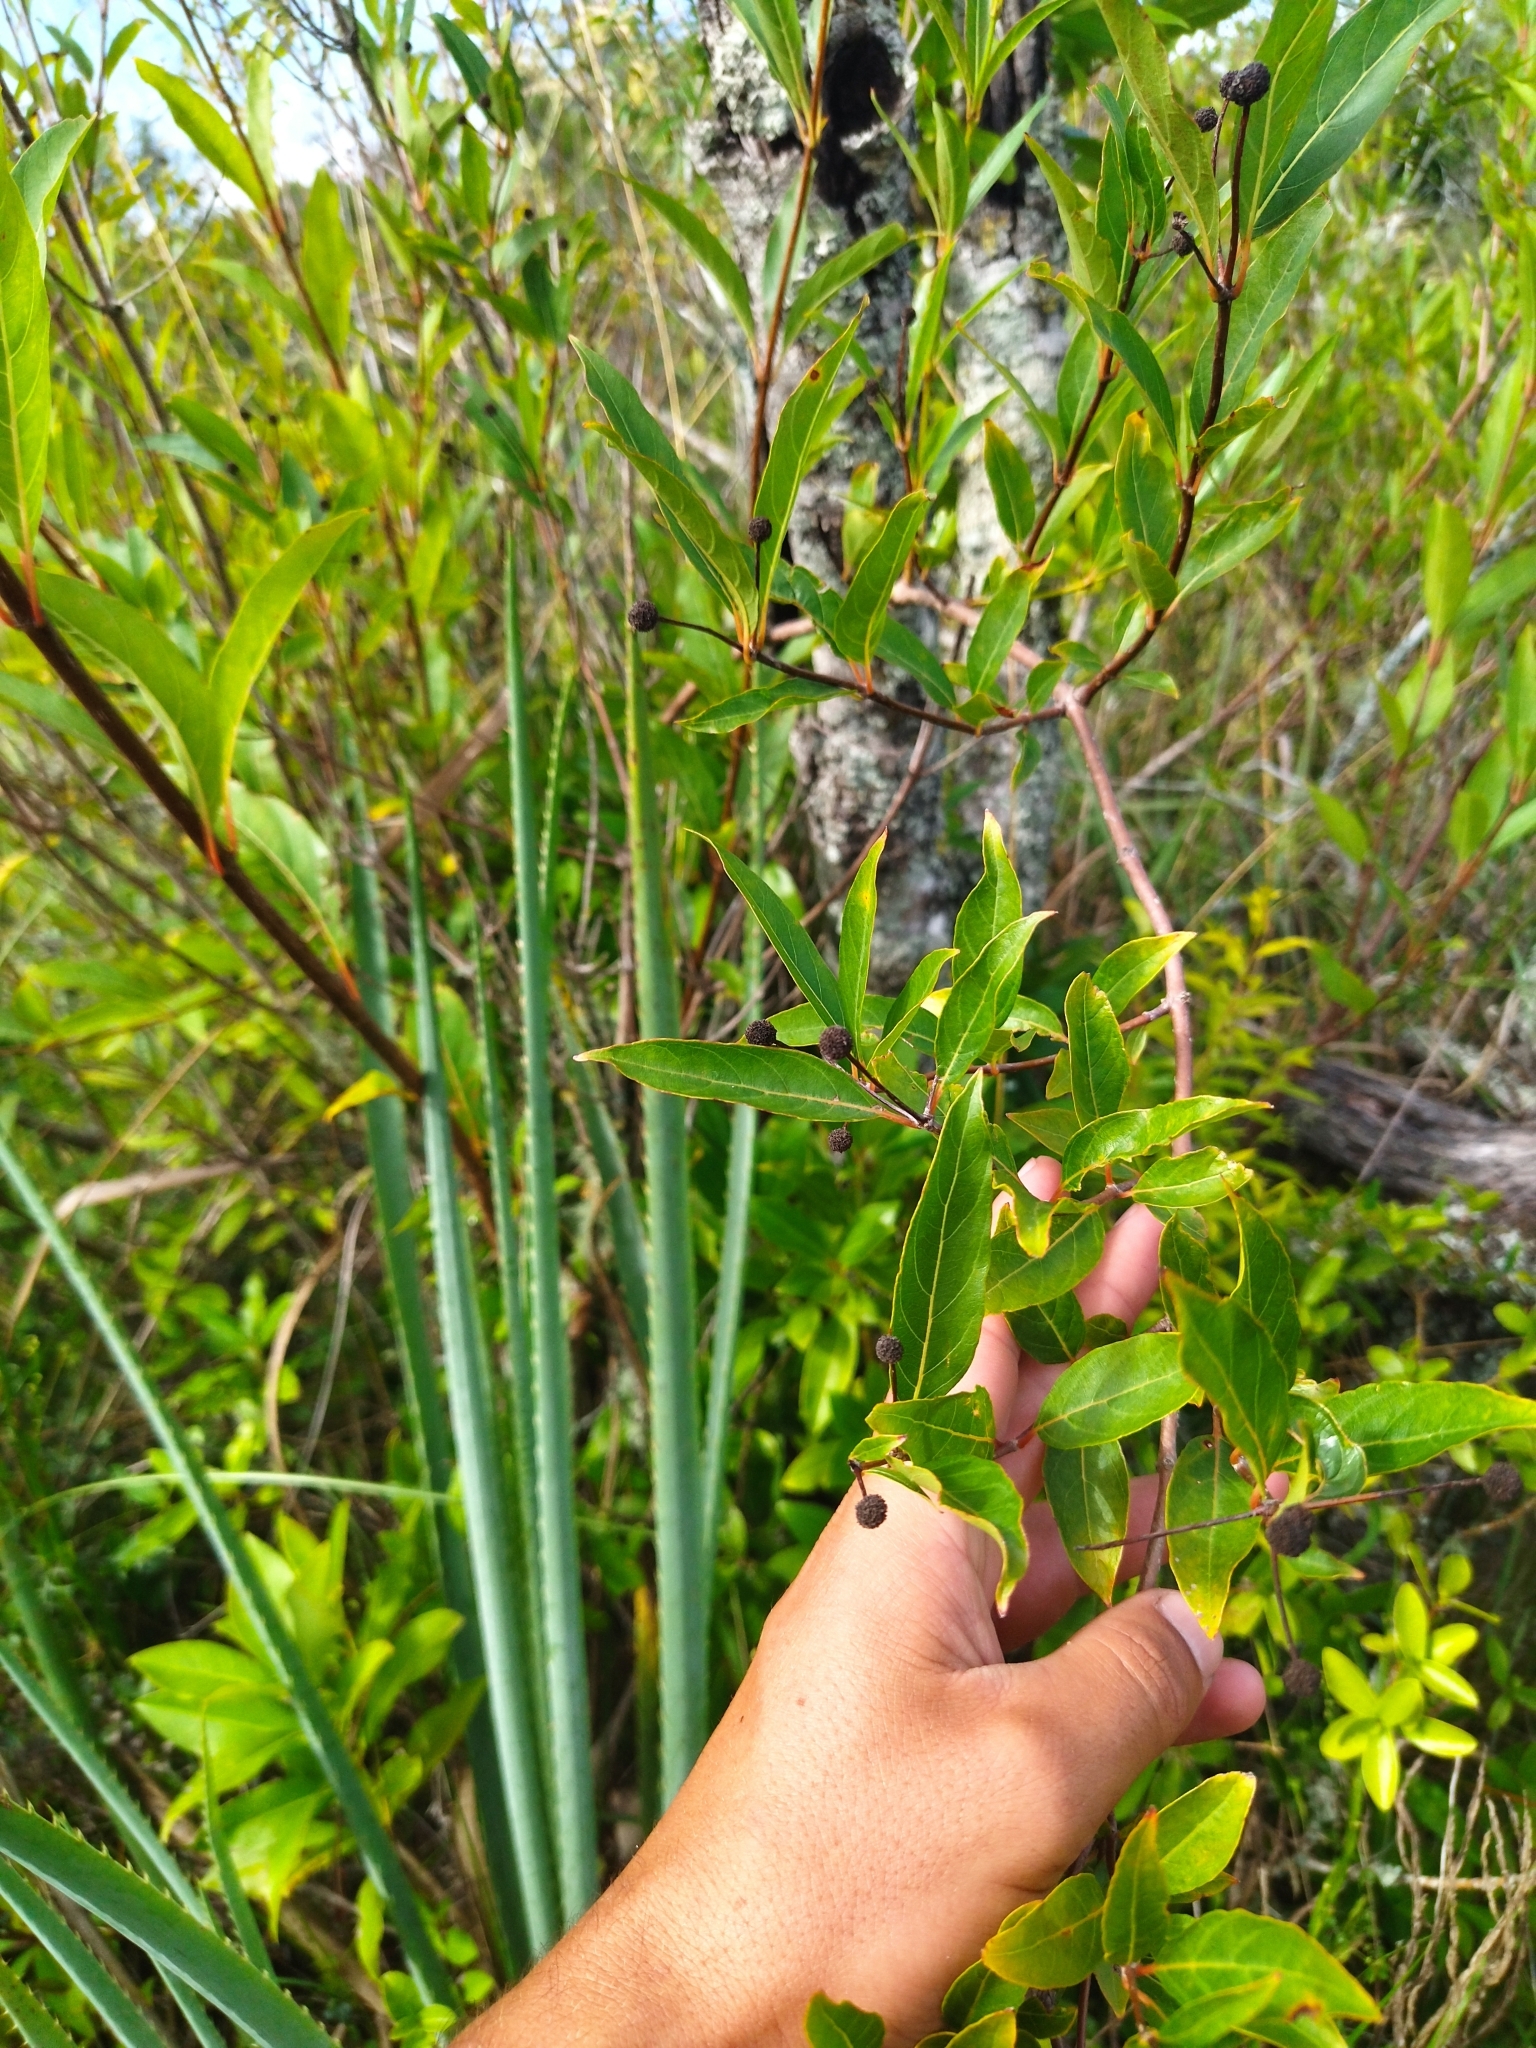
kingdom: Plantae
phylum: Tracheophyta
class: Magnoliopsida
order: Gentianales
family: Rubiaceae
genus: Cephalanthus
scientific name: Cephalanthus glabratus
